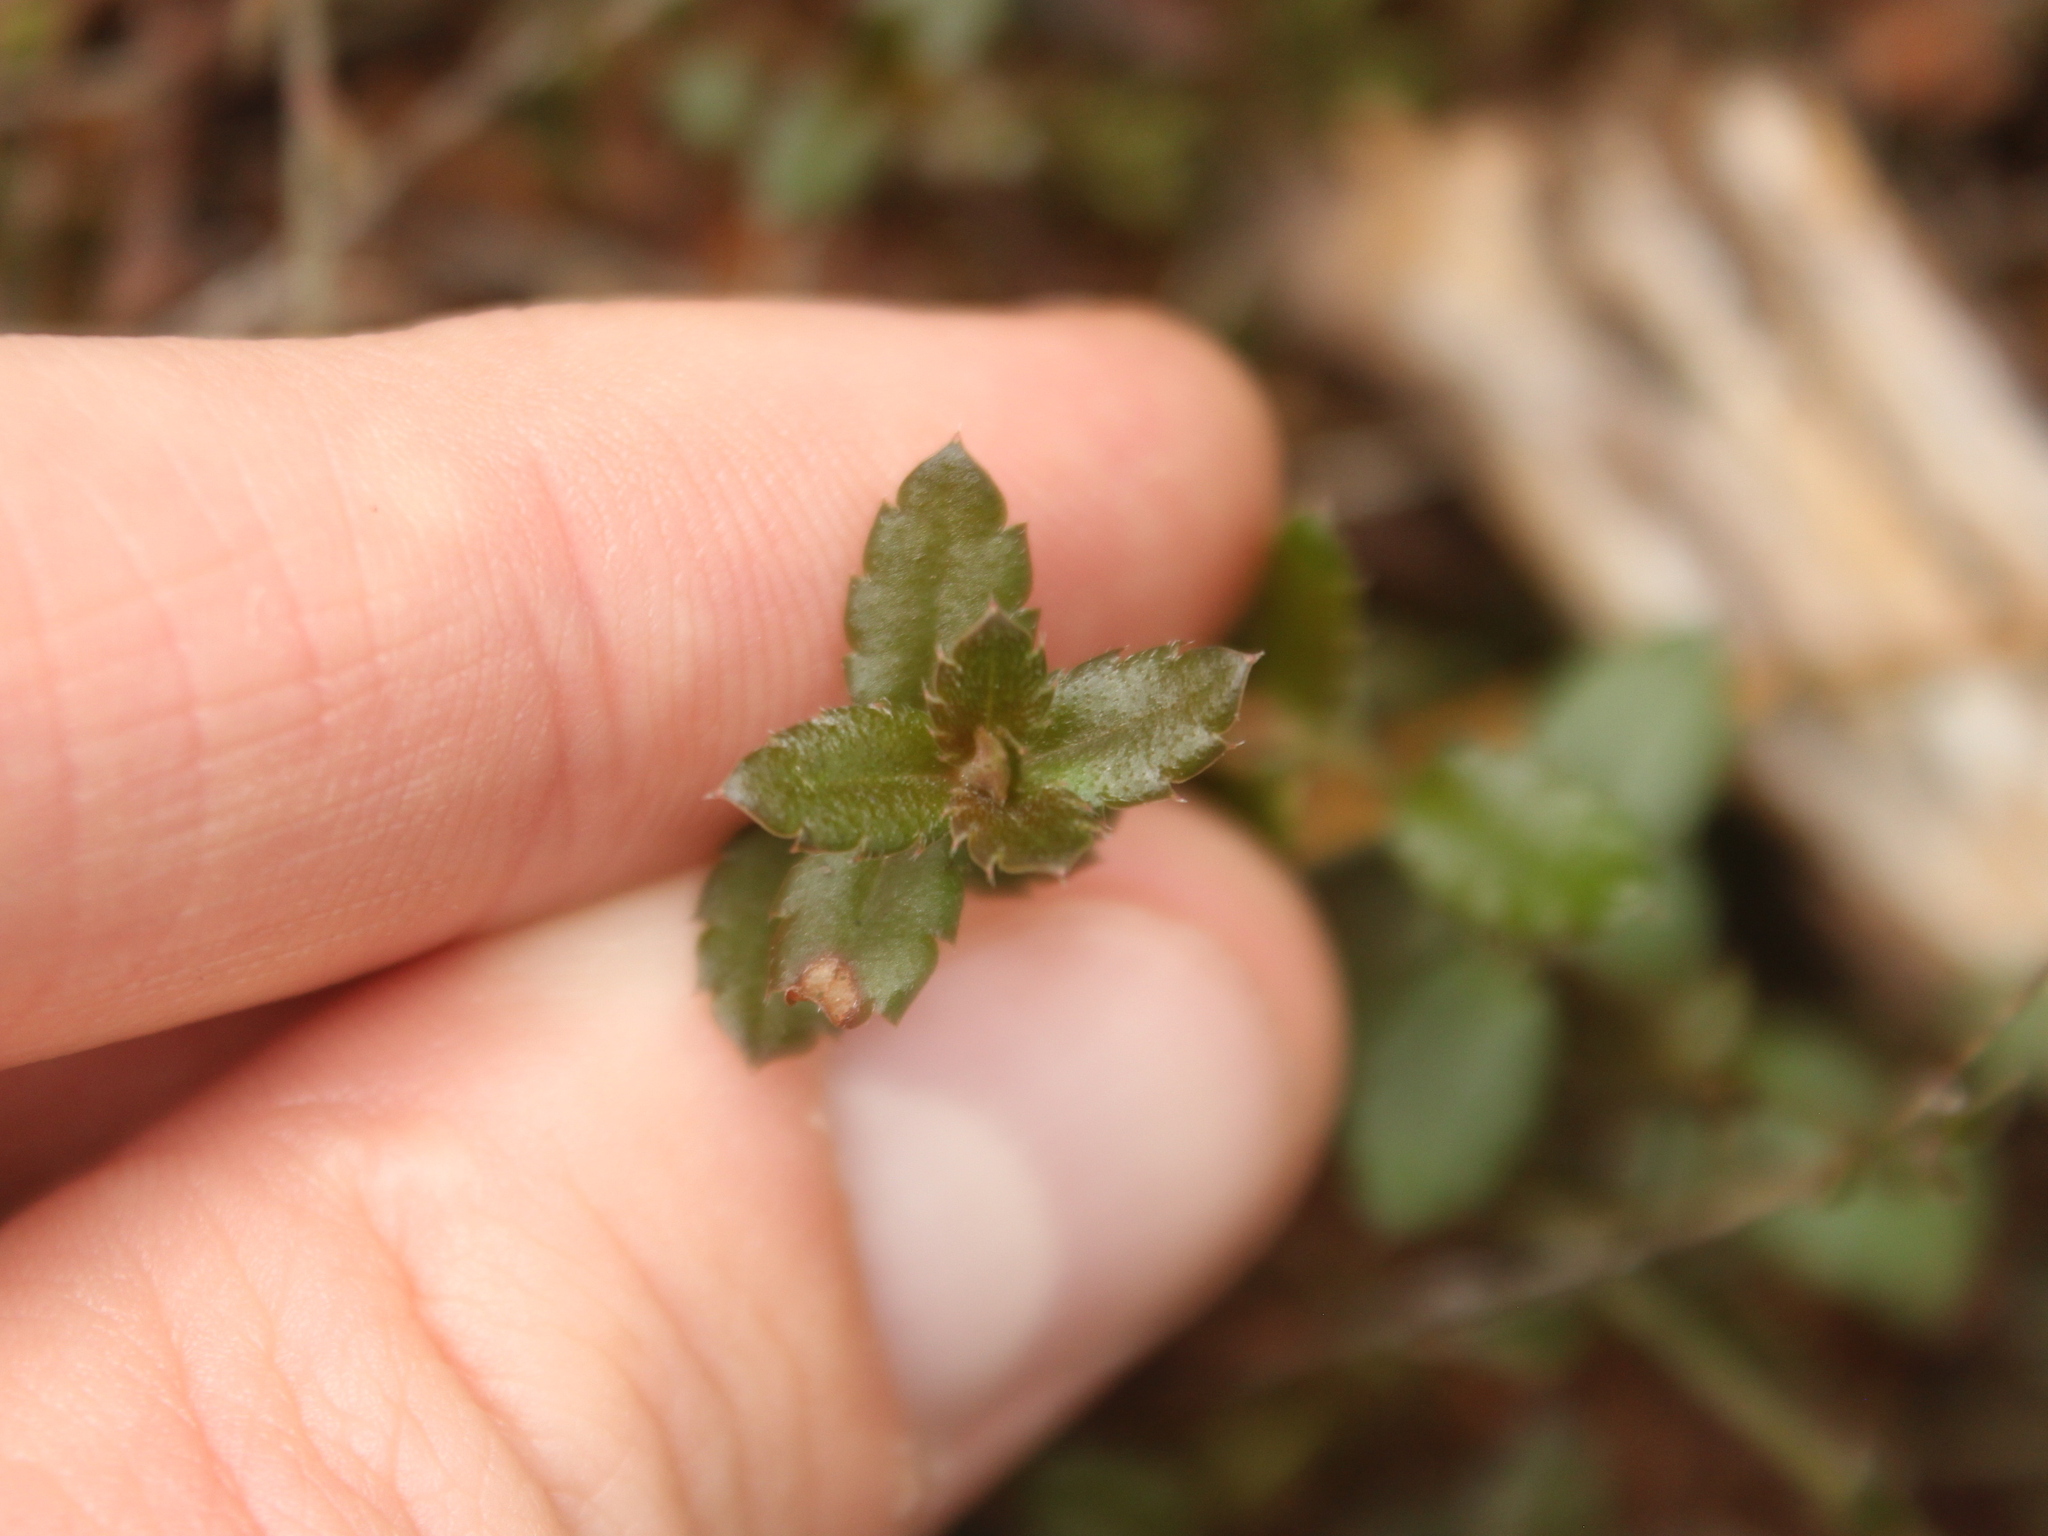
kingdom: Plantae
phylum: Tracheophyta
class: Magnoliopsida
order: Saxifragales
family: Haloragaceae
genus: Gonocarpus
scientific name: Gonocarpus incanus
